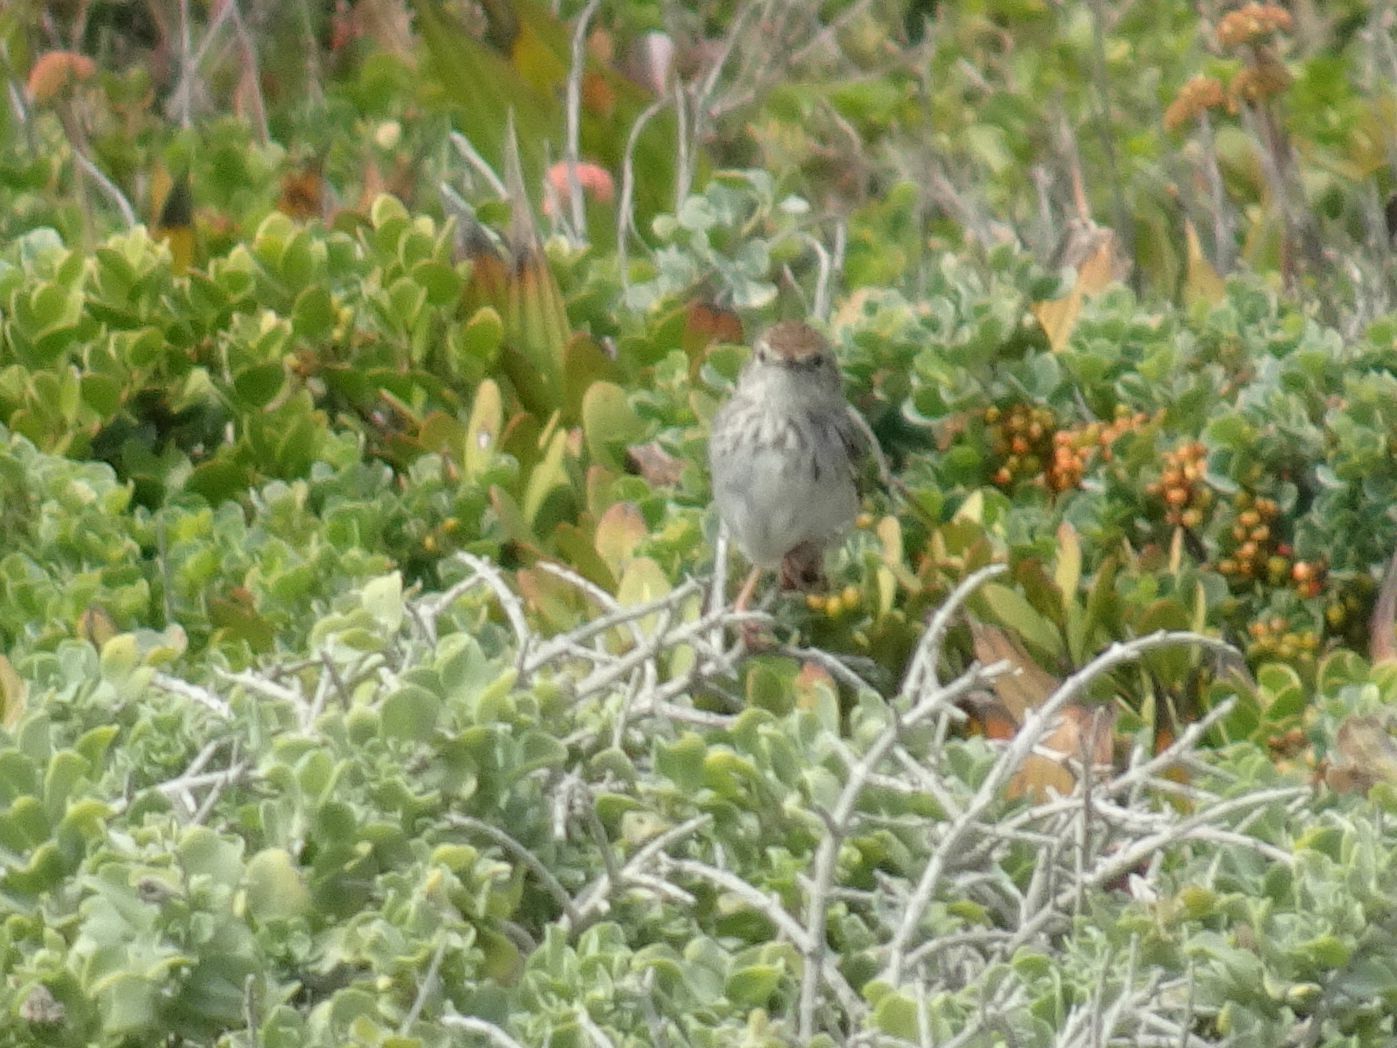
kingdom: Animalia
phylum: Chordata
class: Aves
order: Passeriformes
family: Cisticolidae
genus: Cisticola
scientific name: Cisticola subruficapilla
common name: Grey-backed cisticola
